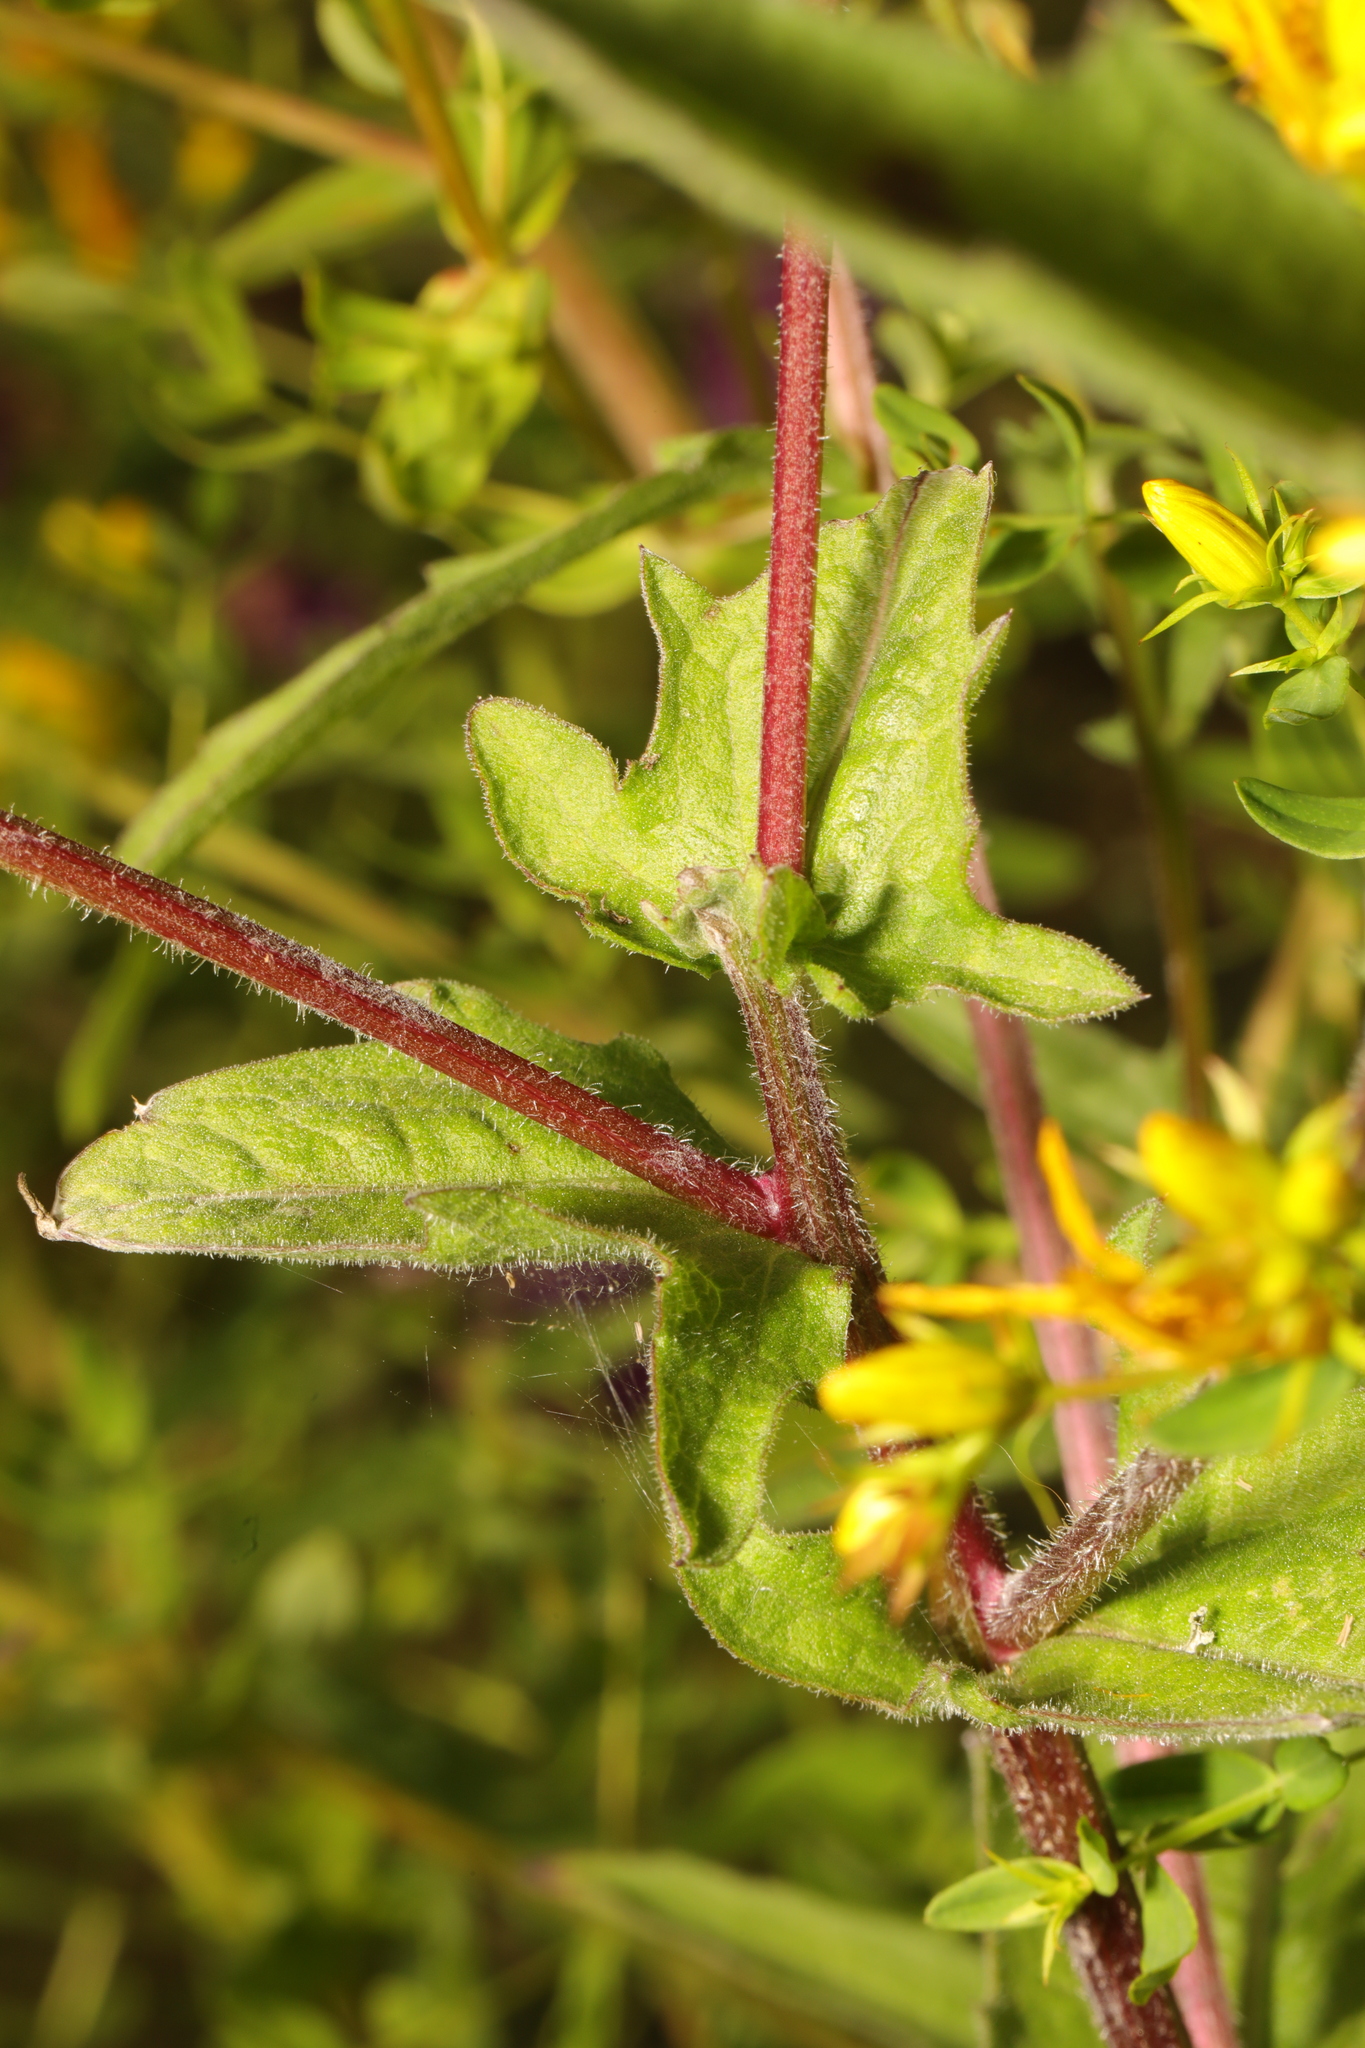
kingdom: Plantae
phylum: Tracheophyta
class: Magnoliopsida
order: Malpighiales
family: Hypericaceae
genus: Hypericum
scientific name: Hypericum perforatum
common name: Common st. johnswort
